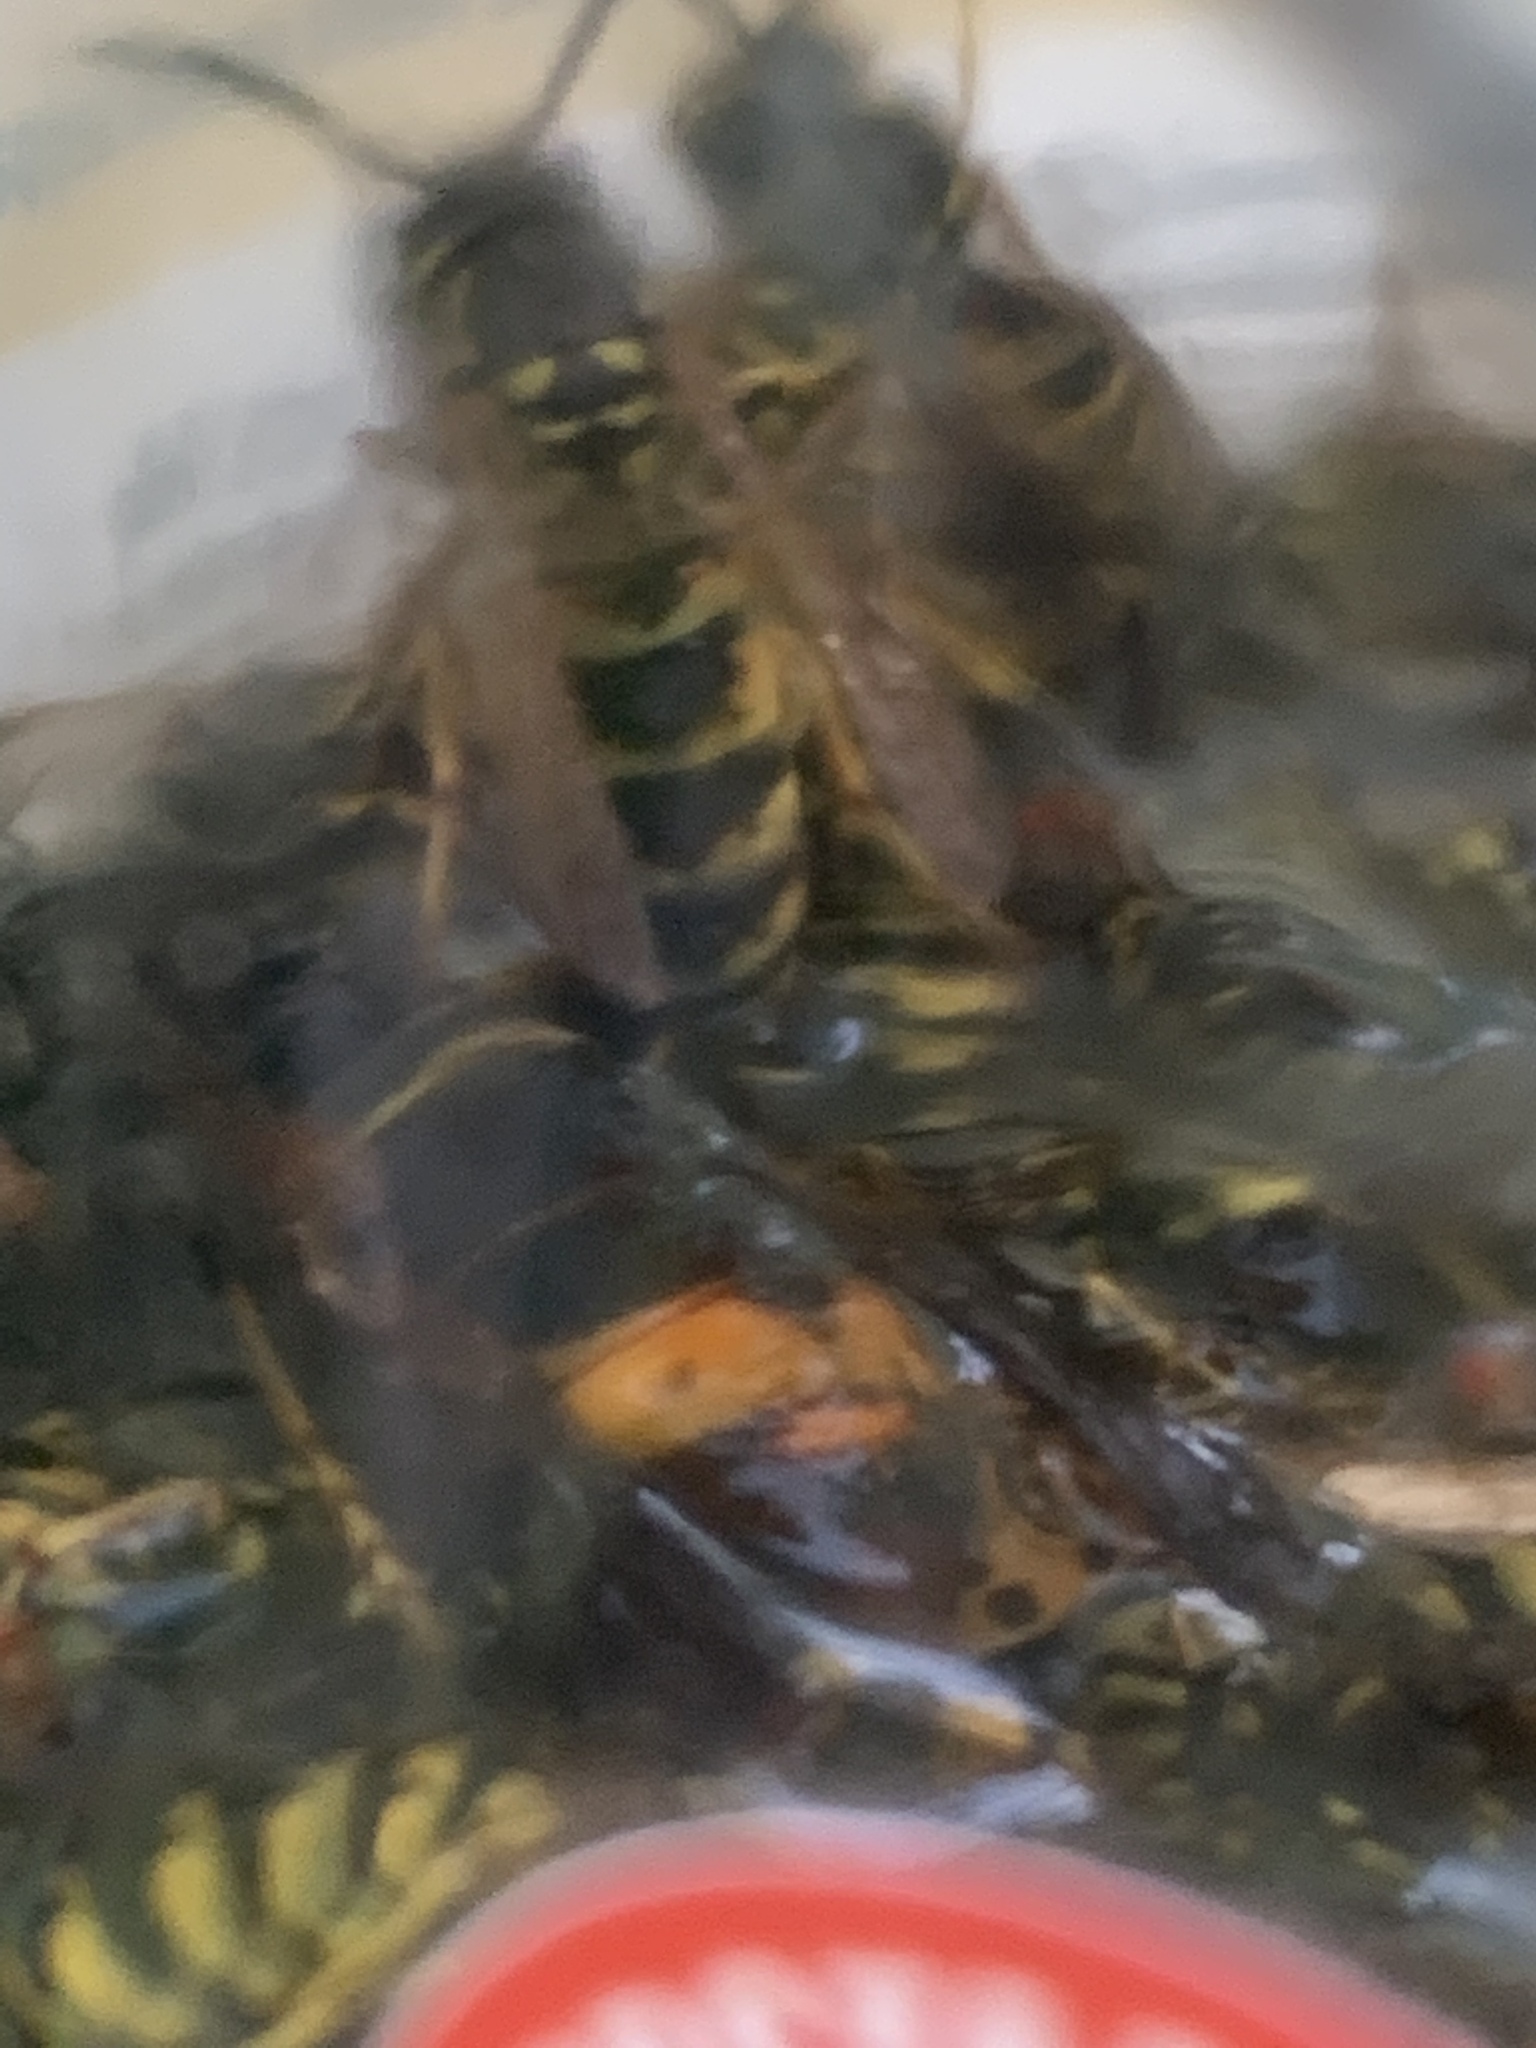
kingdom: Animalia
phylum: Arthropoda
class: Insecta
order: Hymenoptera
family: Vespidae
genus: Vespa
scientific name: Vespa velutina
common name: Asian hornet
